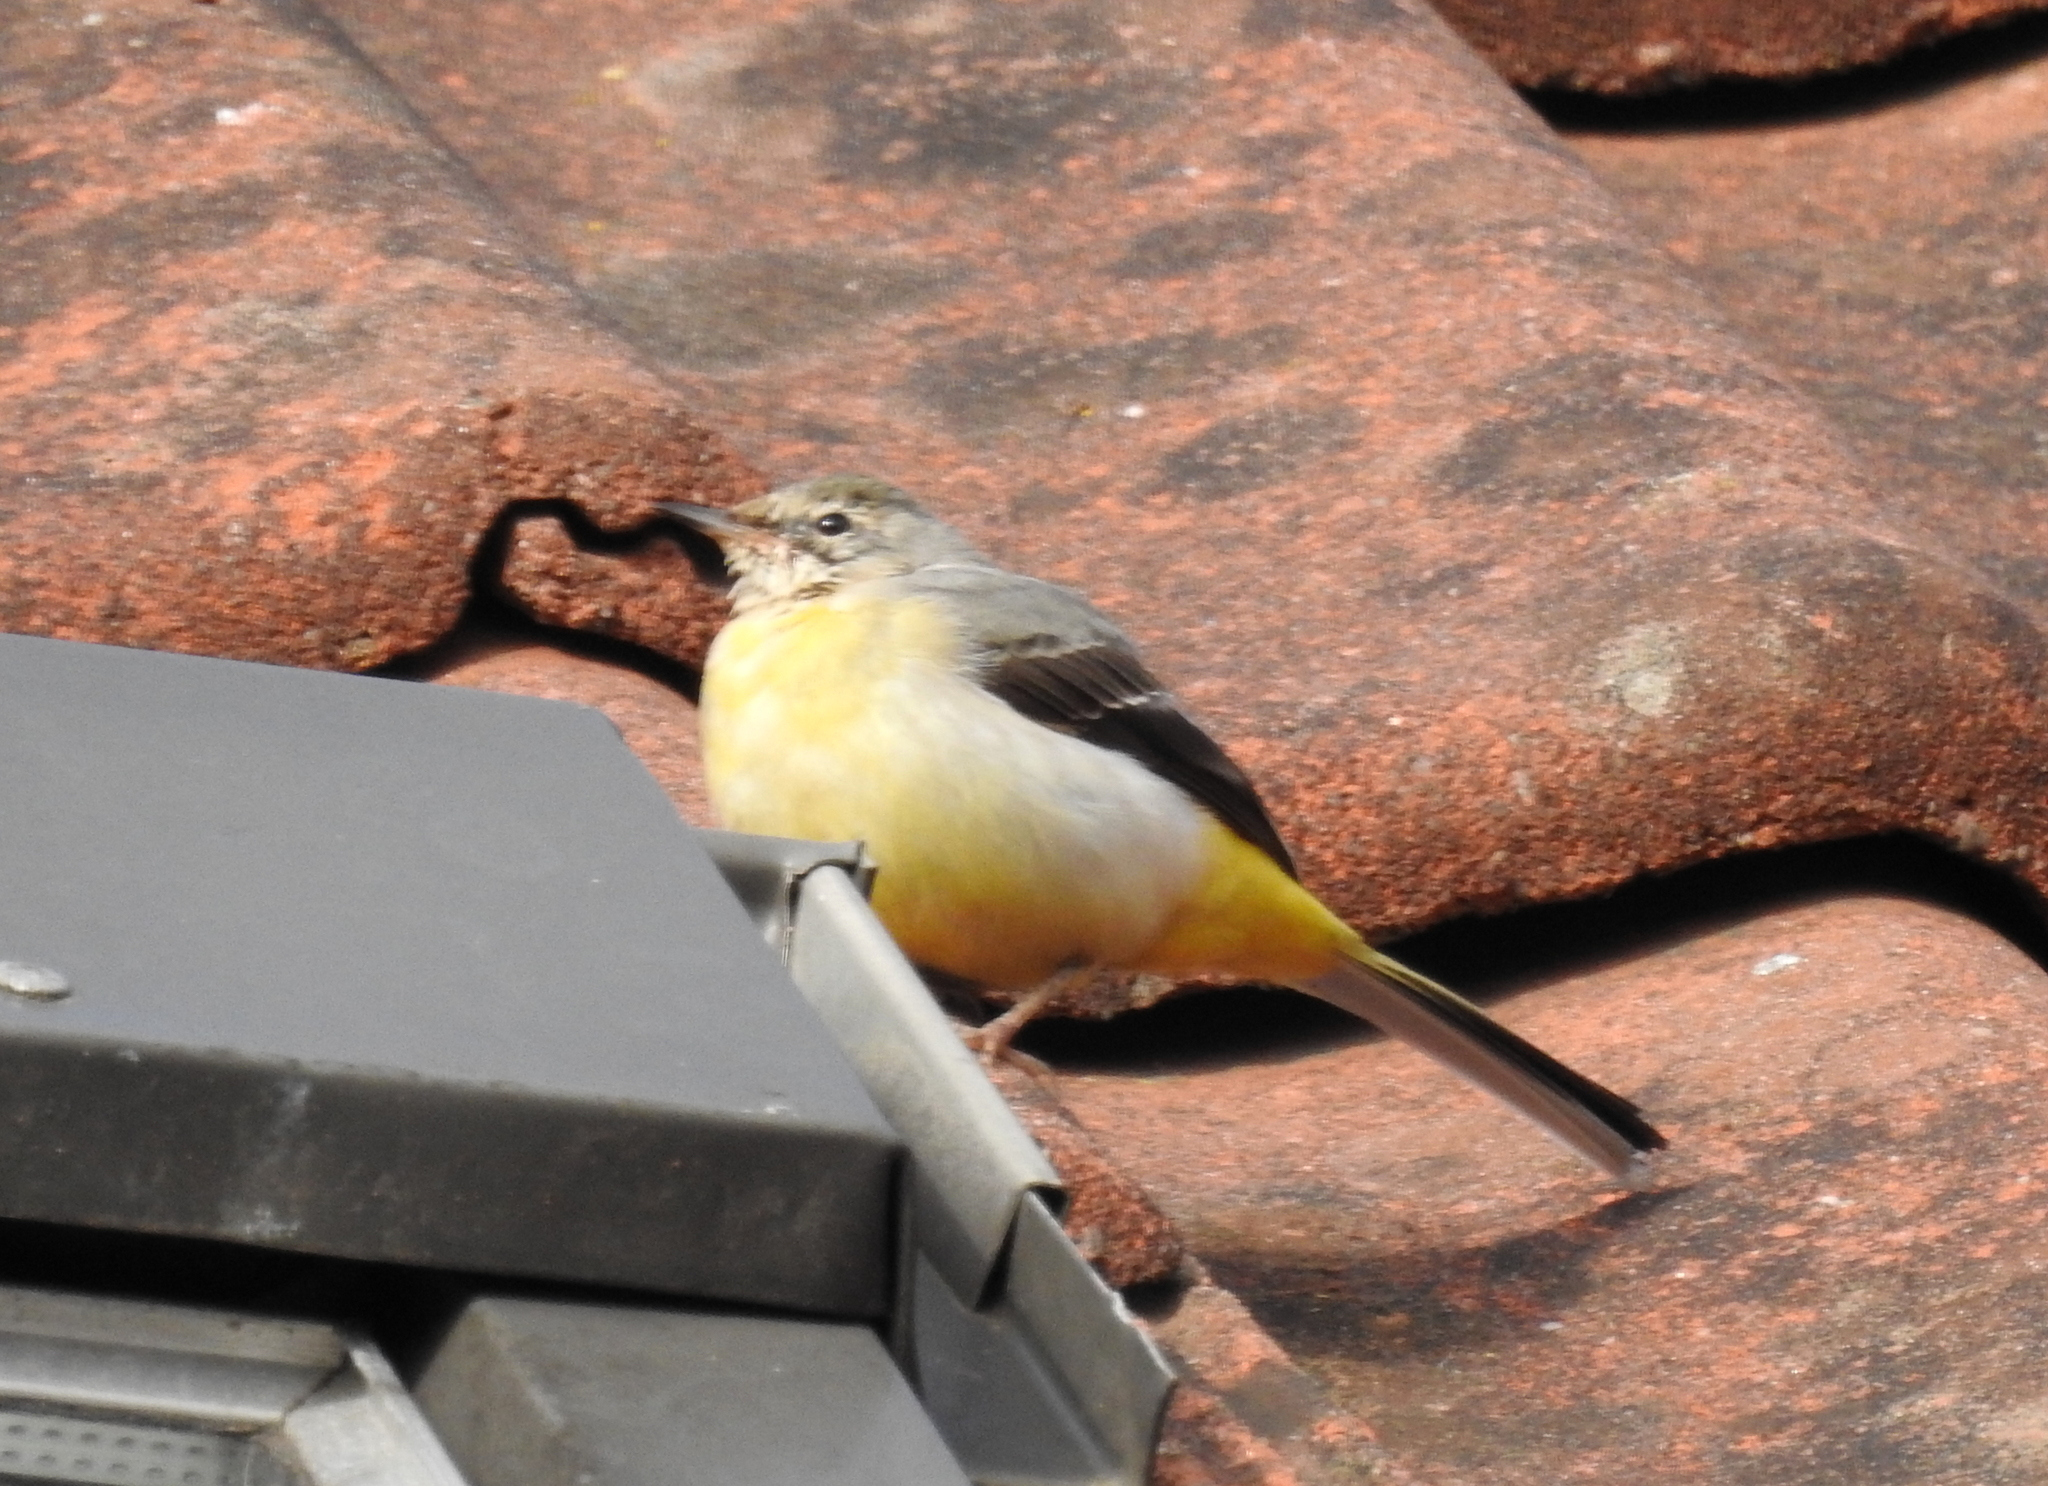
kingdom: Animalia
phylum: Chordata
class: Aves
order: Passeriformes
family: Motacillidae
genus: Motacilla
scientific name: Motacilla cinerea
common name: Grey wagtail
